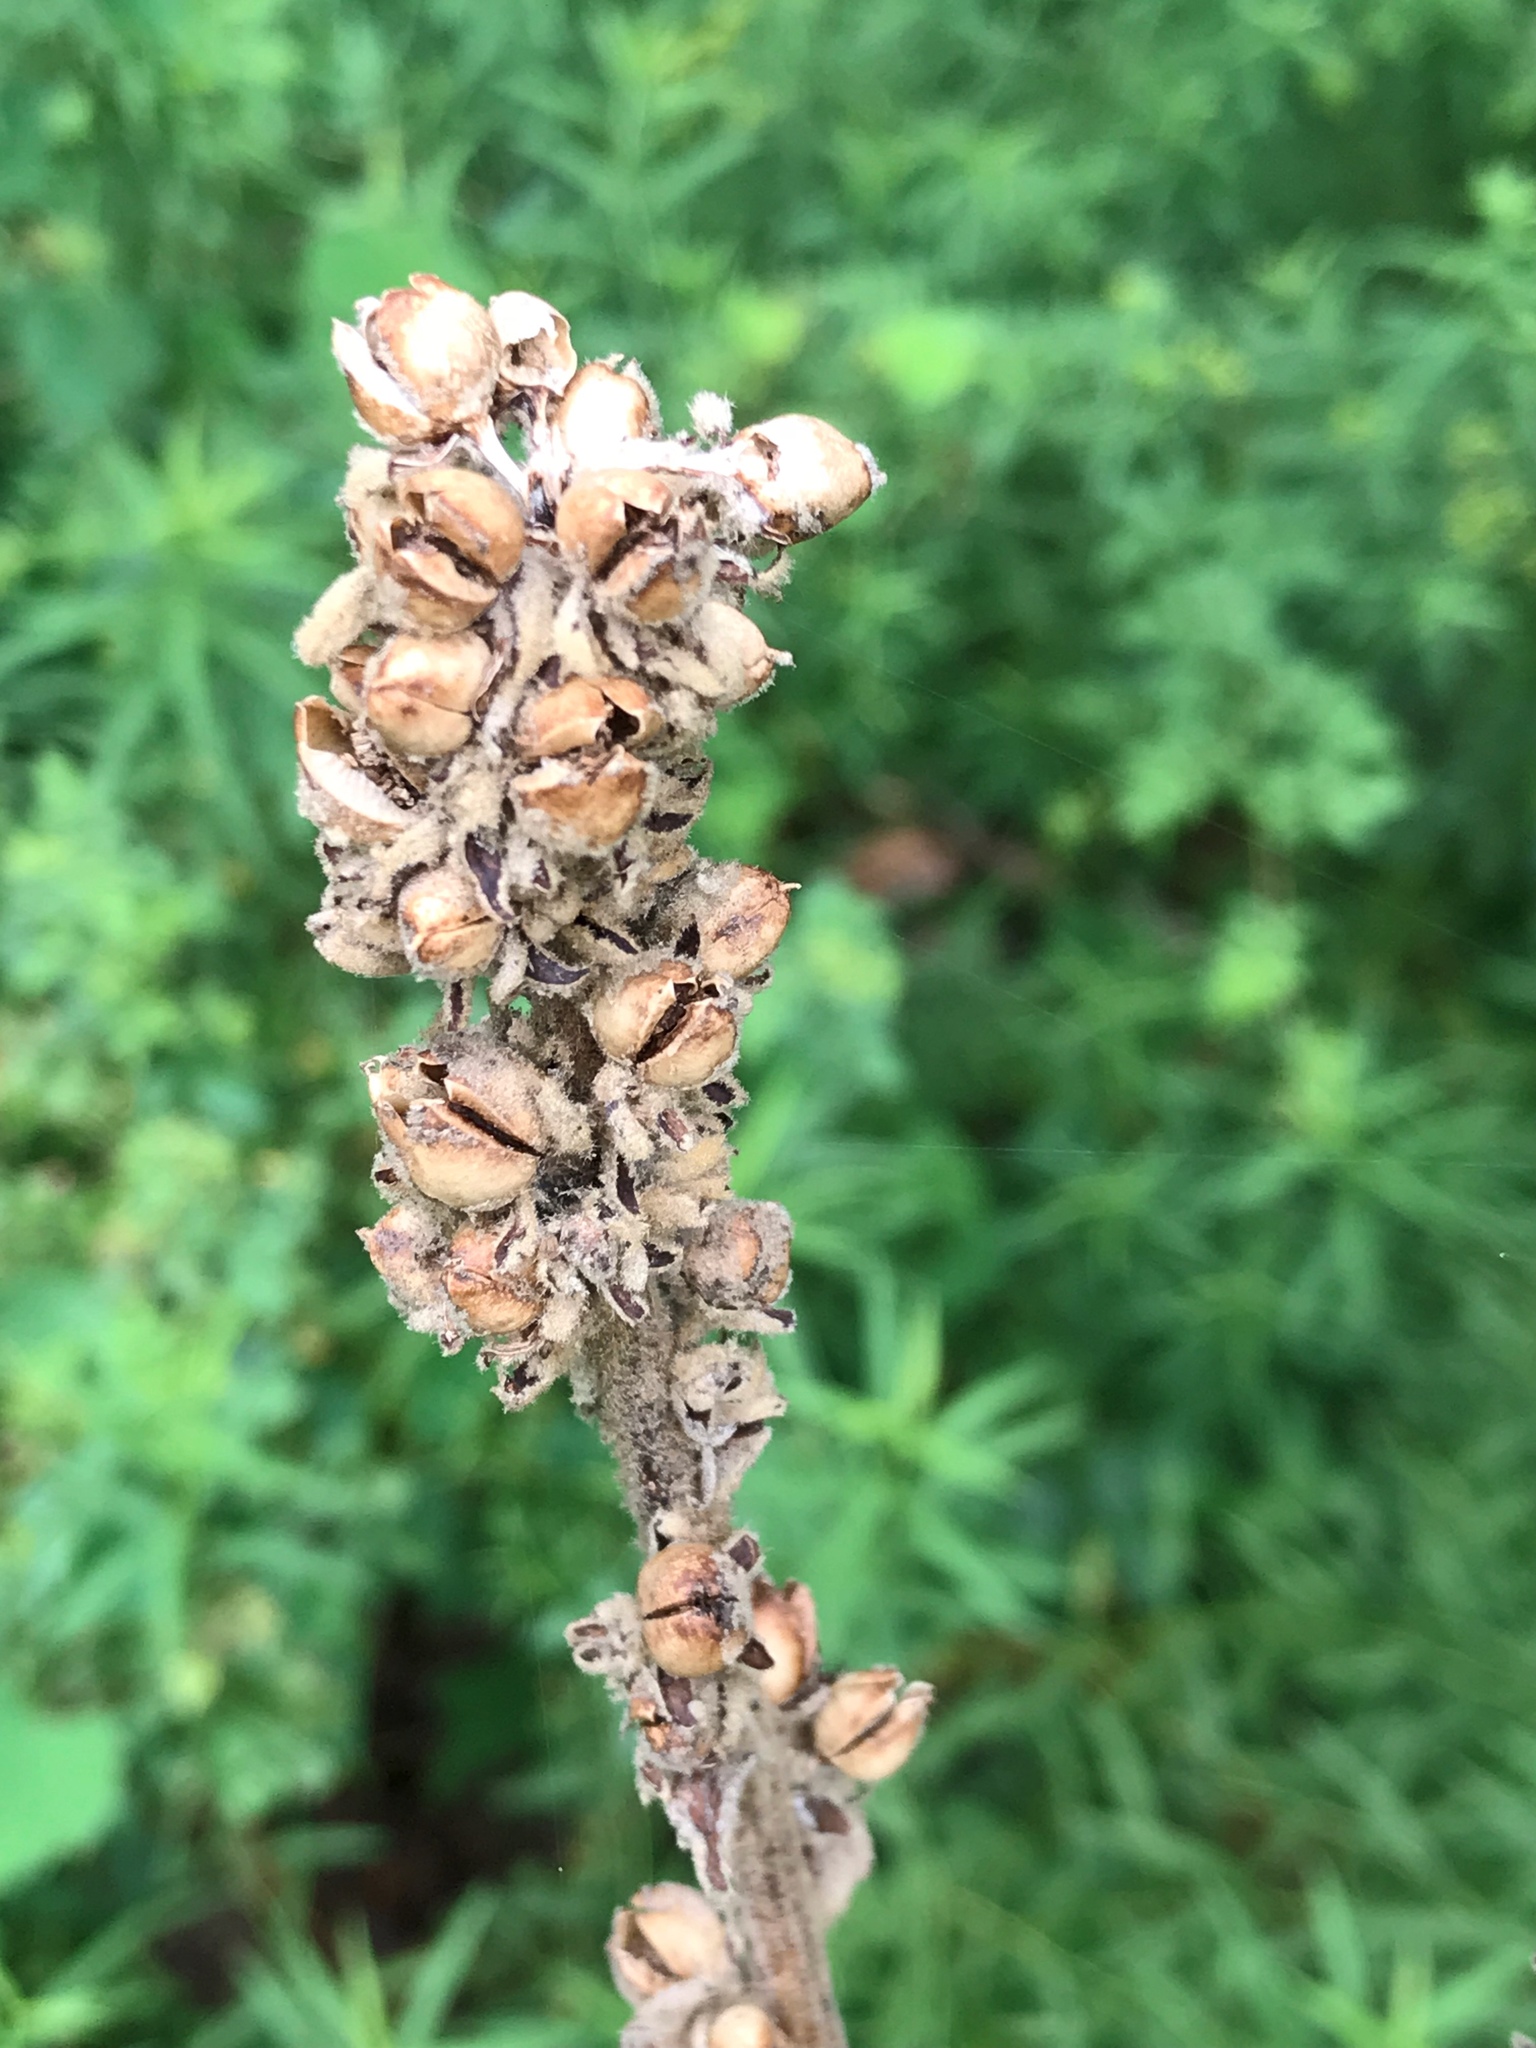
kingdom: Plantae
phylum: Tracheophyta
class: Magnoliopsida
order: Lamiales
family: Scrophulariaceae
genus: Verbascum
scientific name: Verbascum thapsus
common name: Common mullein
